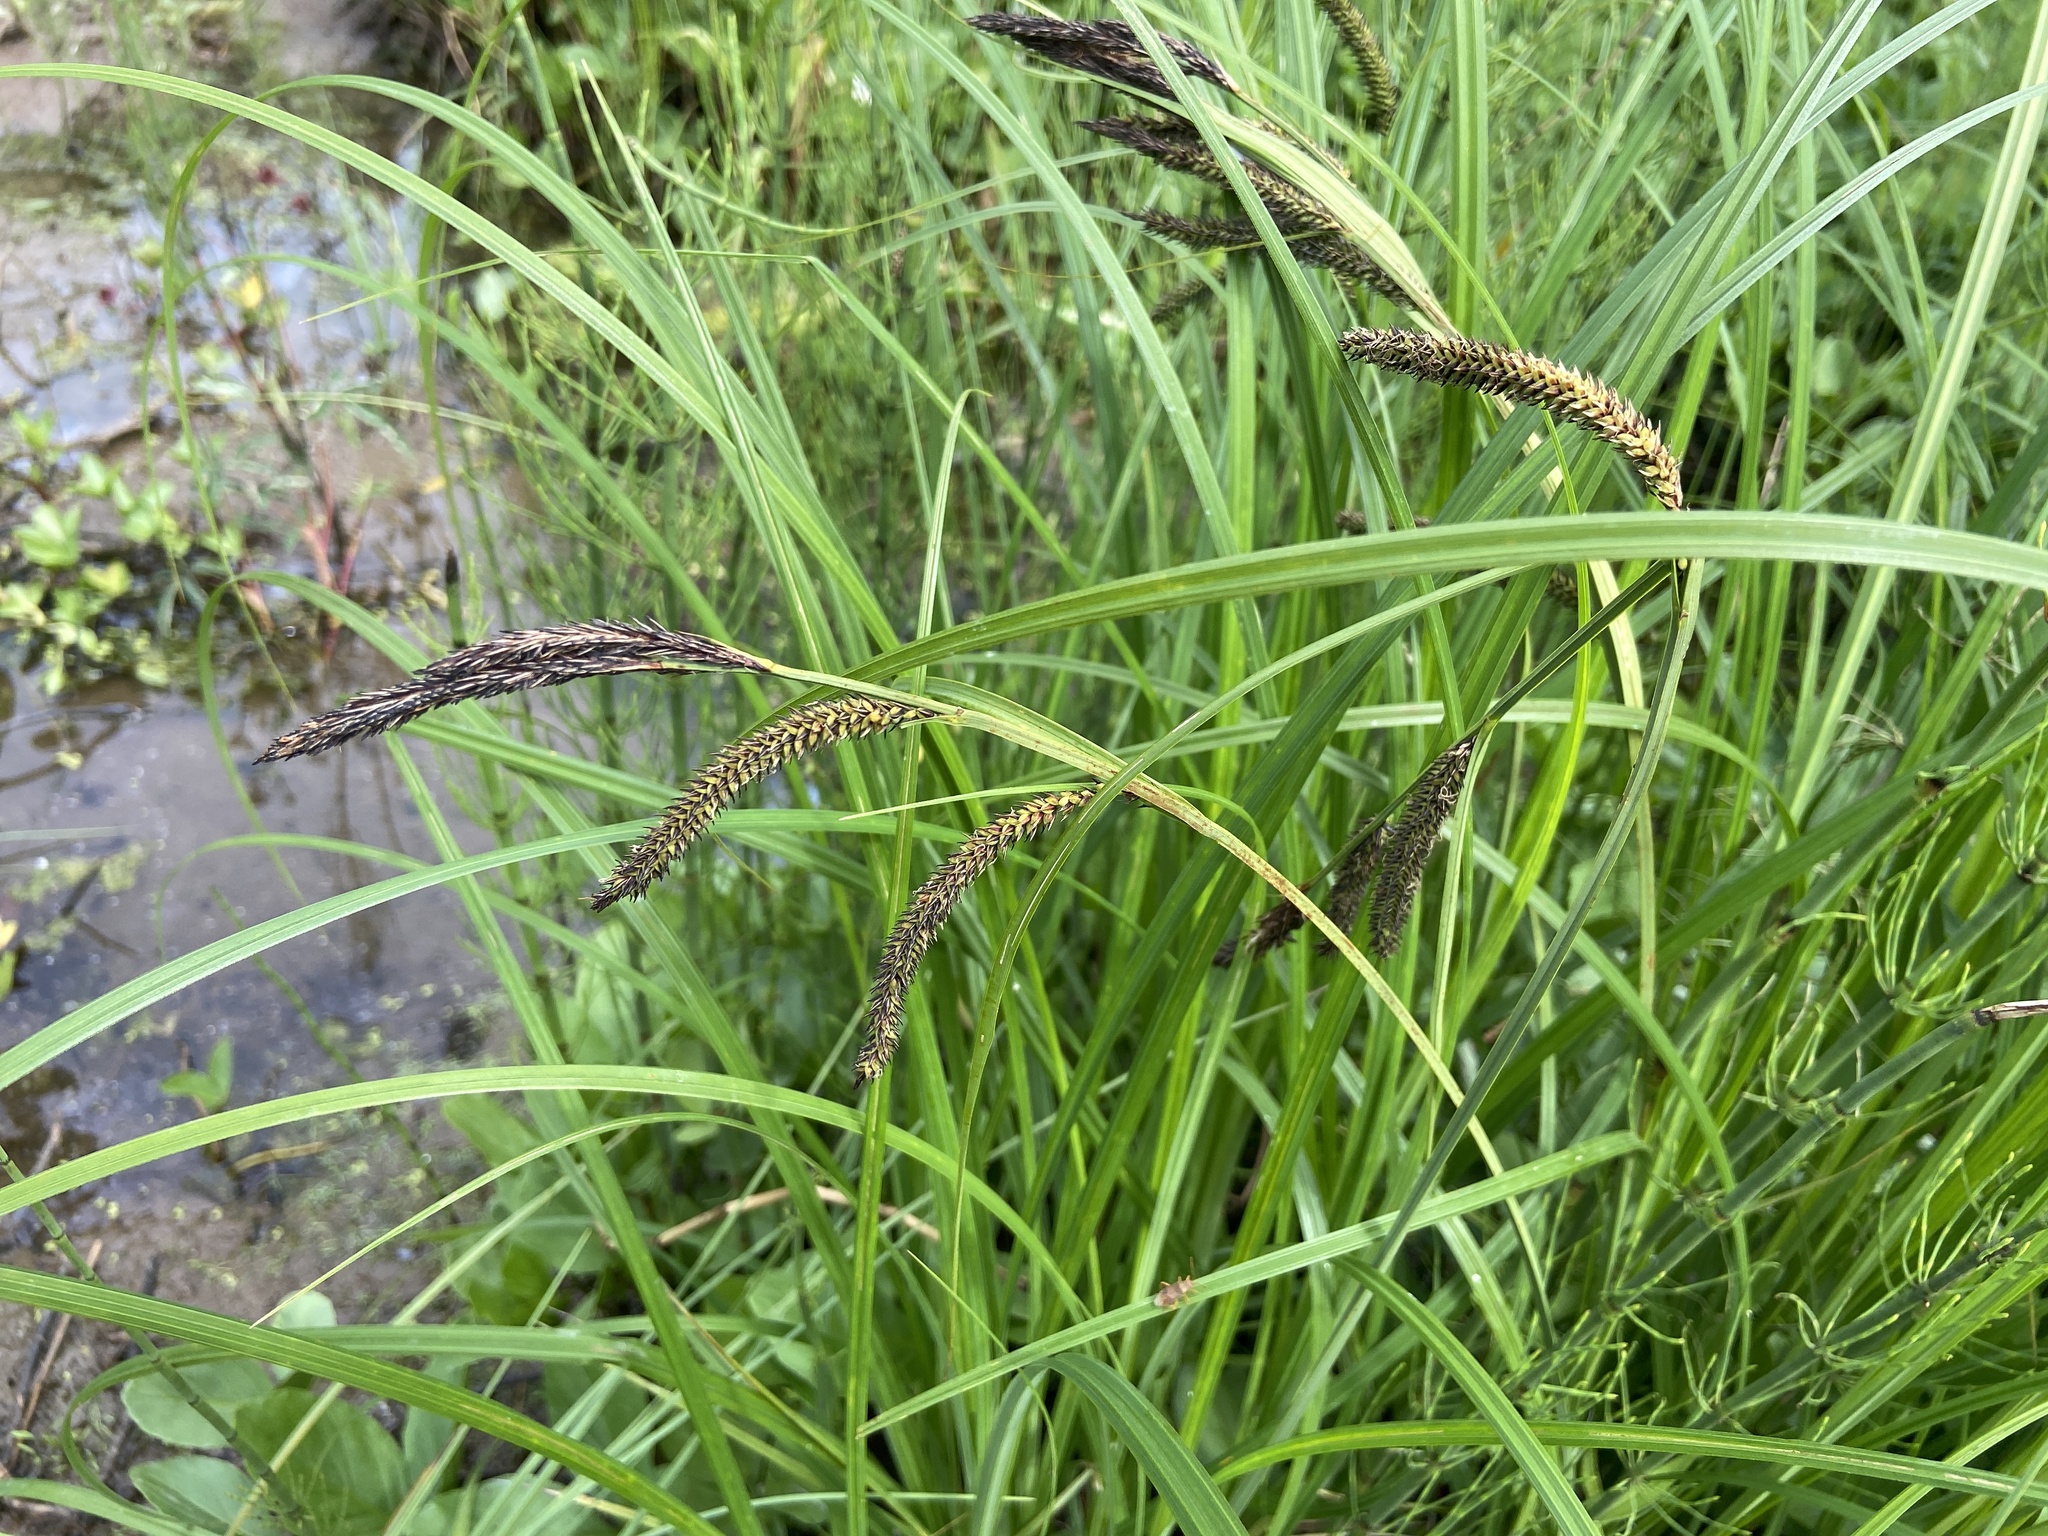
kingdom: Plantae
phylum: Tracheophyta
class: Liliopsida
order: Poales
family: Cyperaceae
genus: Carex
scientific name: Carex acuta
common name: Slender tufted-sedge
